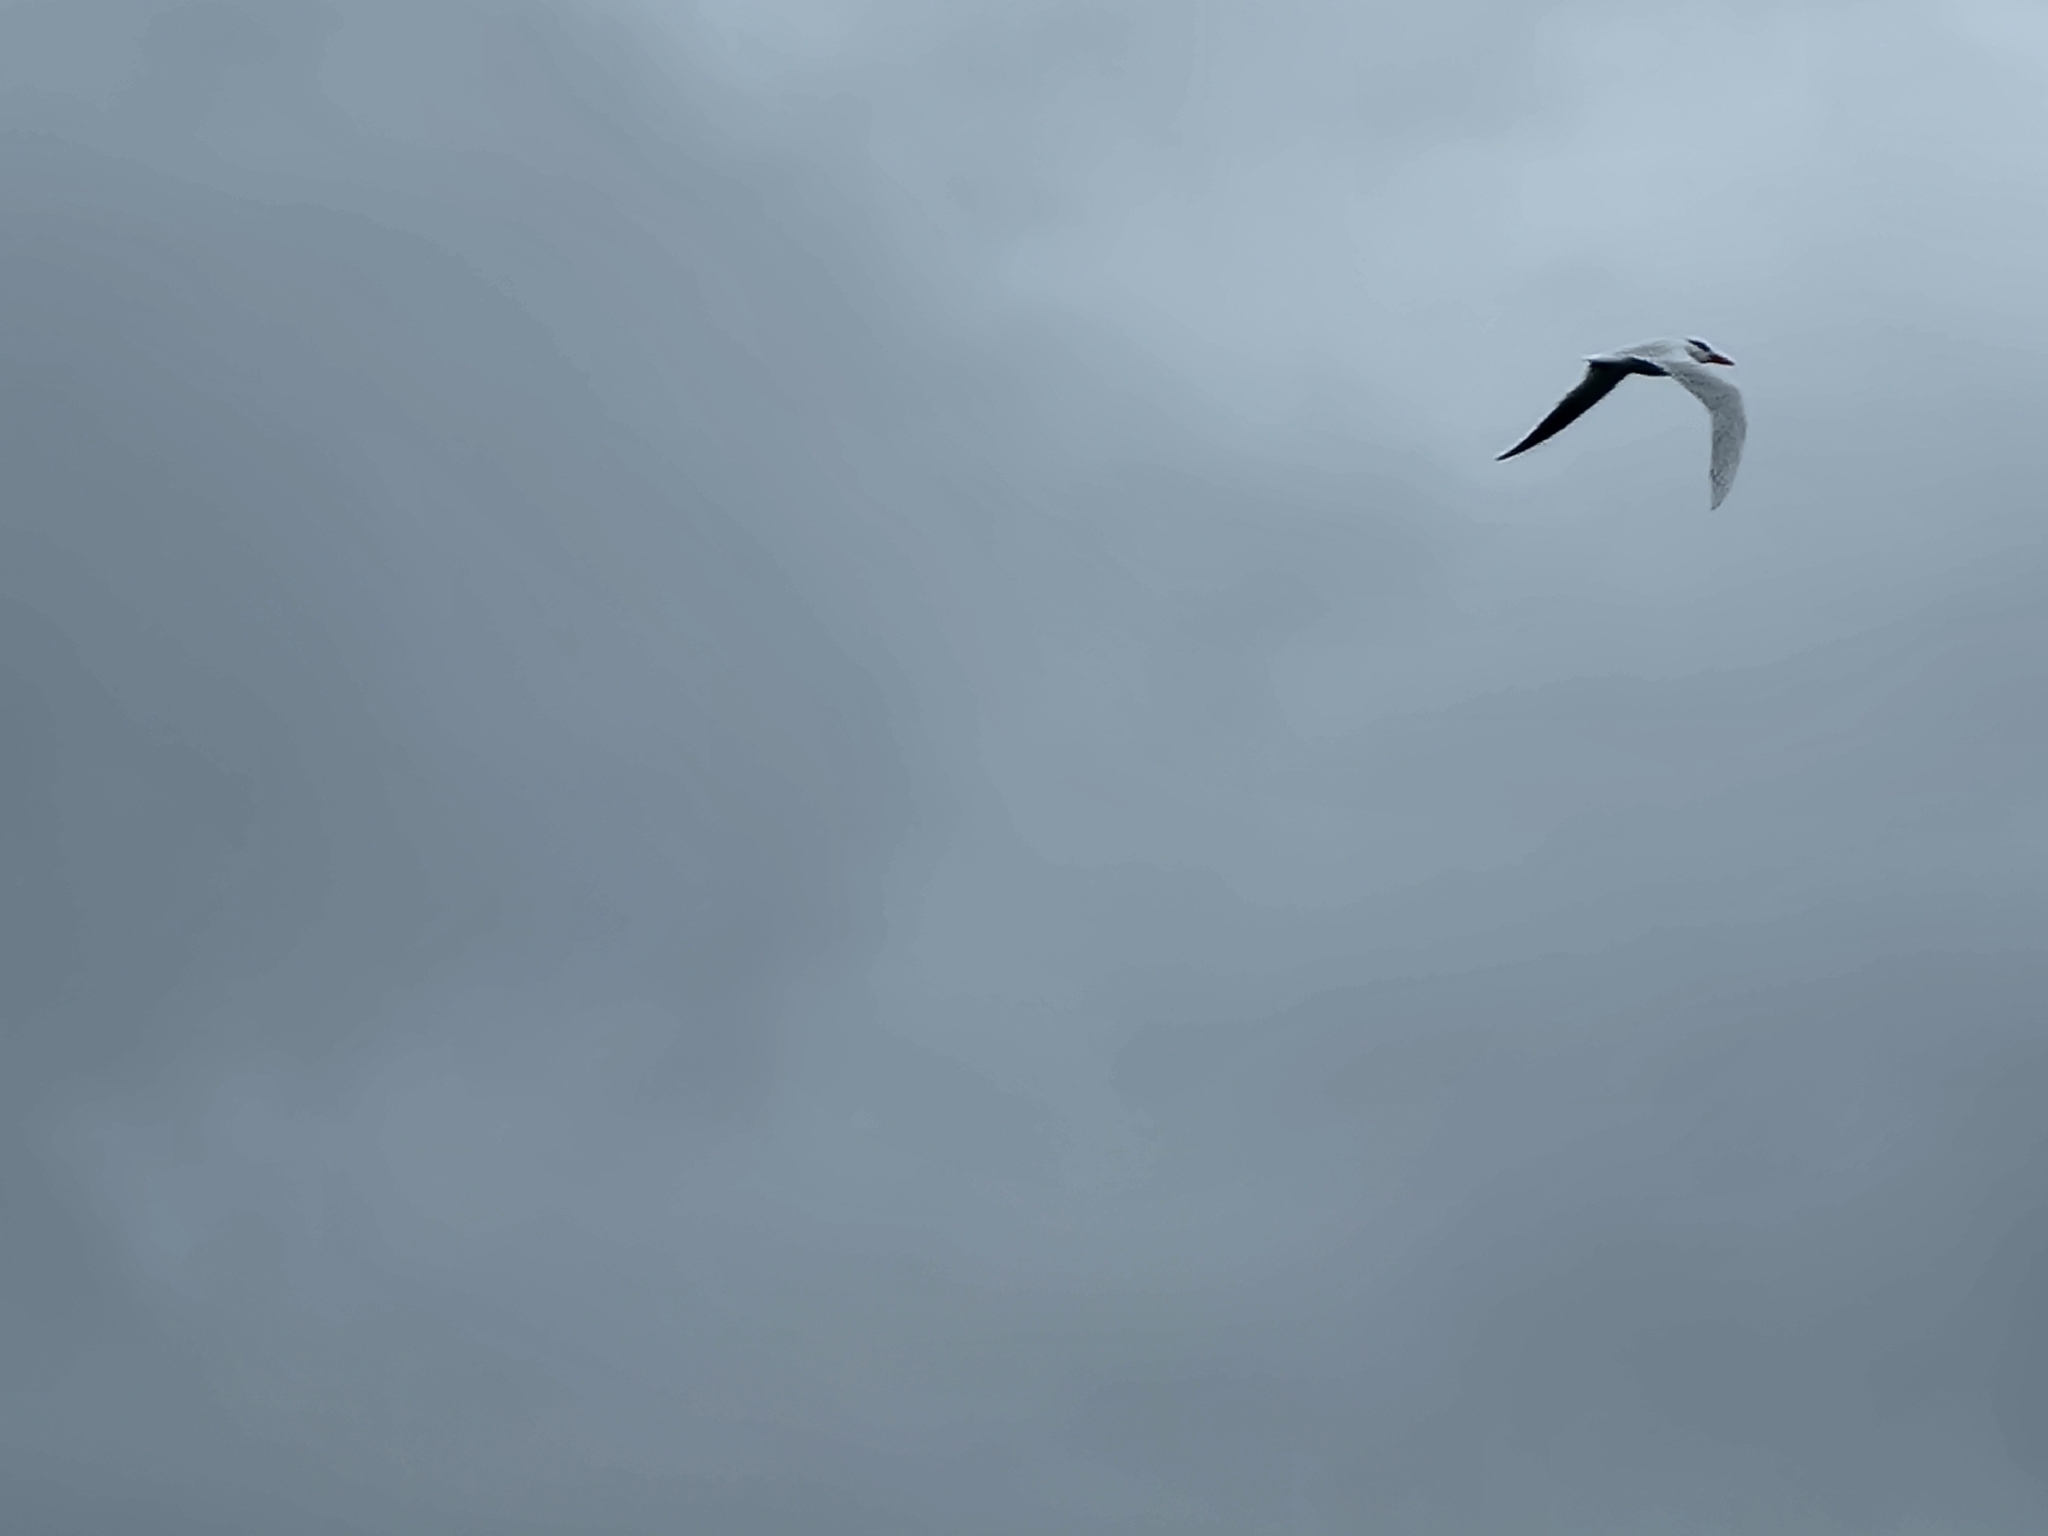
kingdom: Animalia
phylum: Chordata
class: Aves
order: Charadriiformes
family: Laridae
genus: Hydroprogne
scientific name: Hydroprogne caspia
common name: Caspian tern
